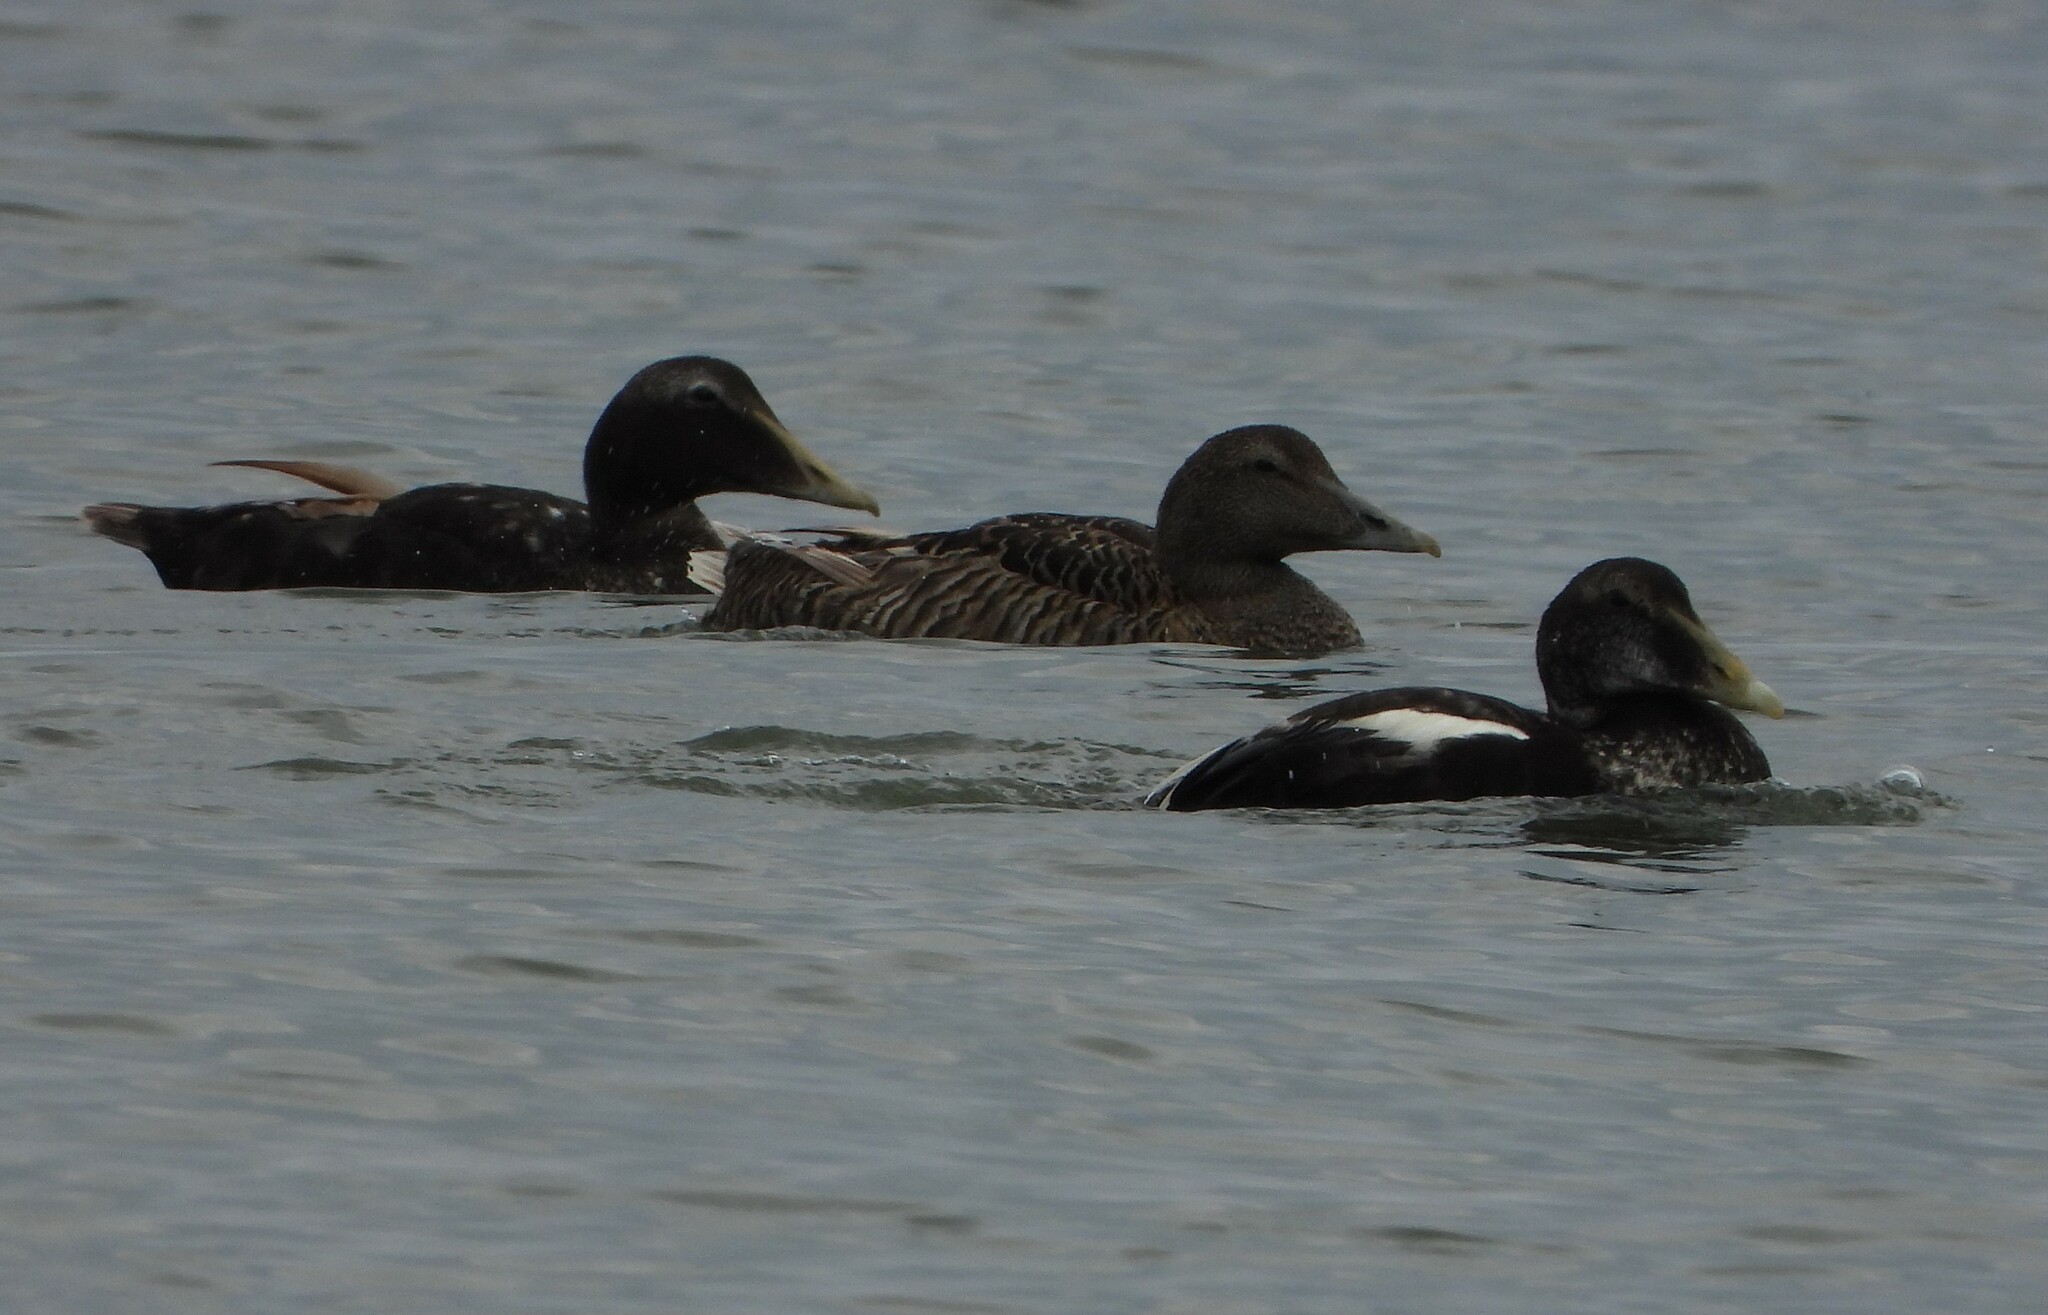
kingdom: Animalia
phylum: Chordata
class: Aves
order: Anseriformes
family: Anatidae
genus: Somateria
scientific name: Somateria mollissima
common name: Common eider
